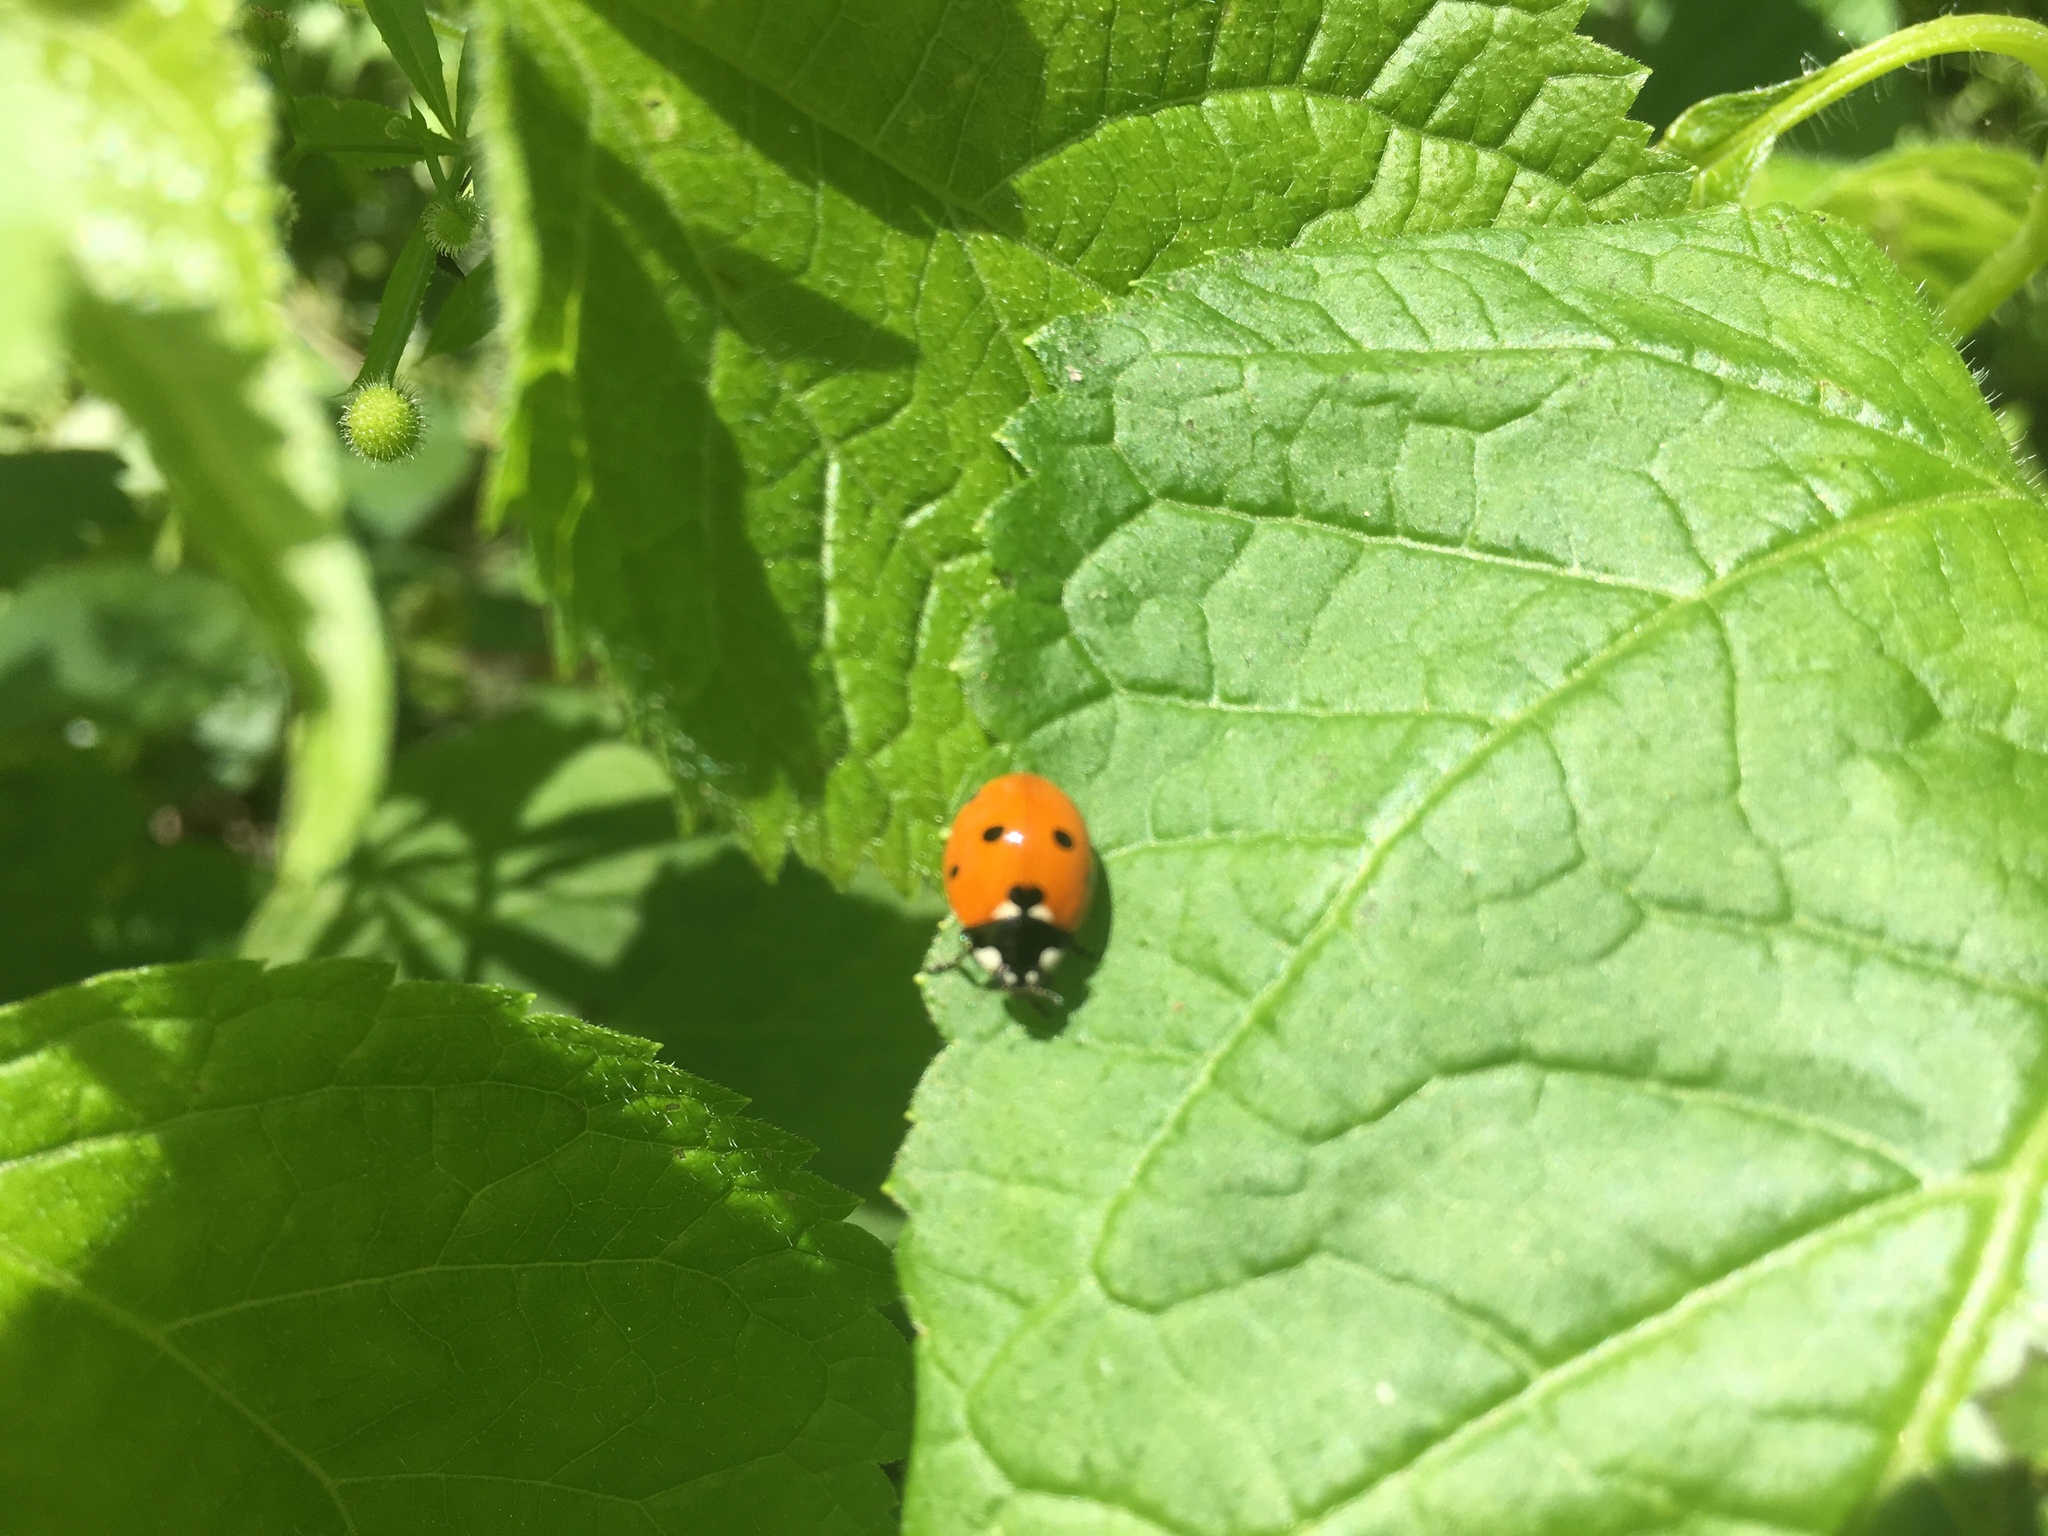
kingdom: Animalia
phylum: Arthropoda
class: Insecta
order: Coleoptera
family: Coccinellidae
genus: Coccinella
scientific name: Coccinella septempunctata
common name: Sevenspotted lady beetle
